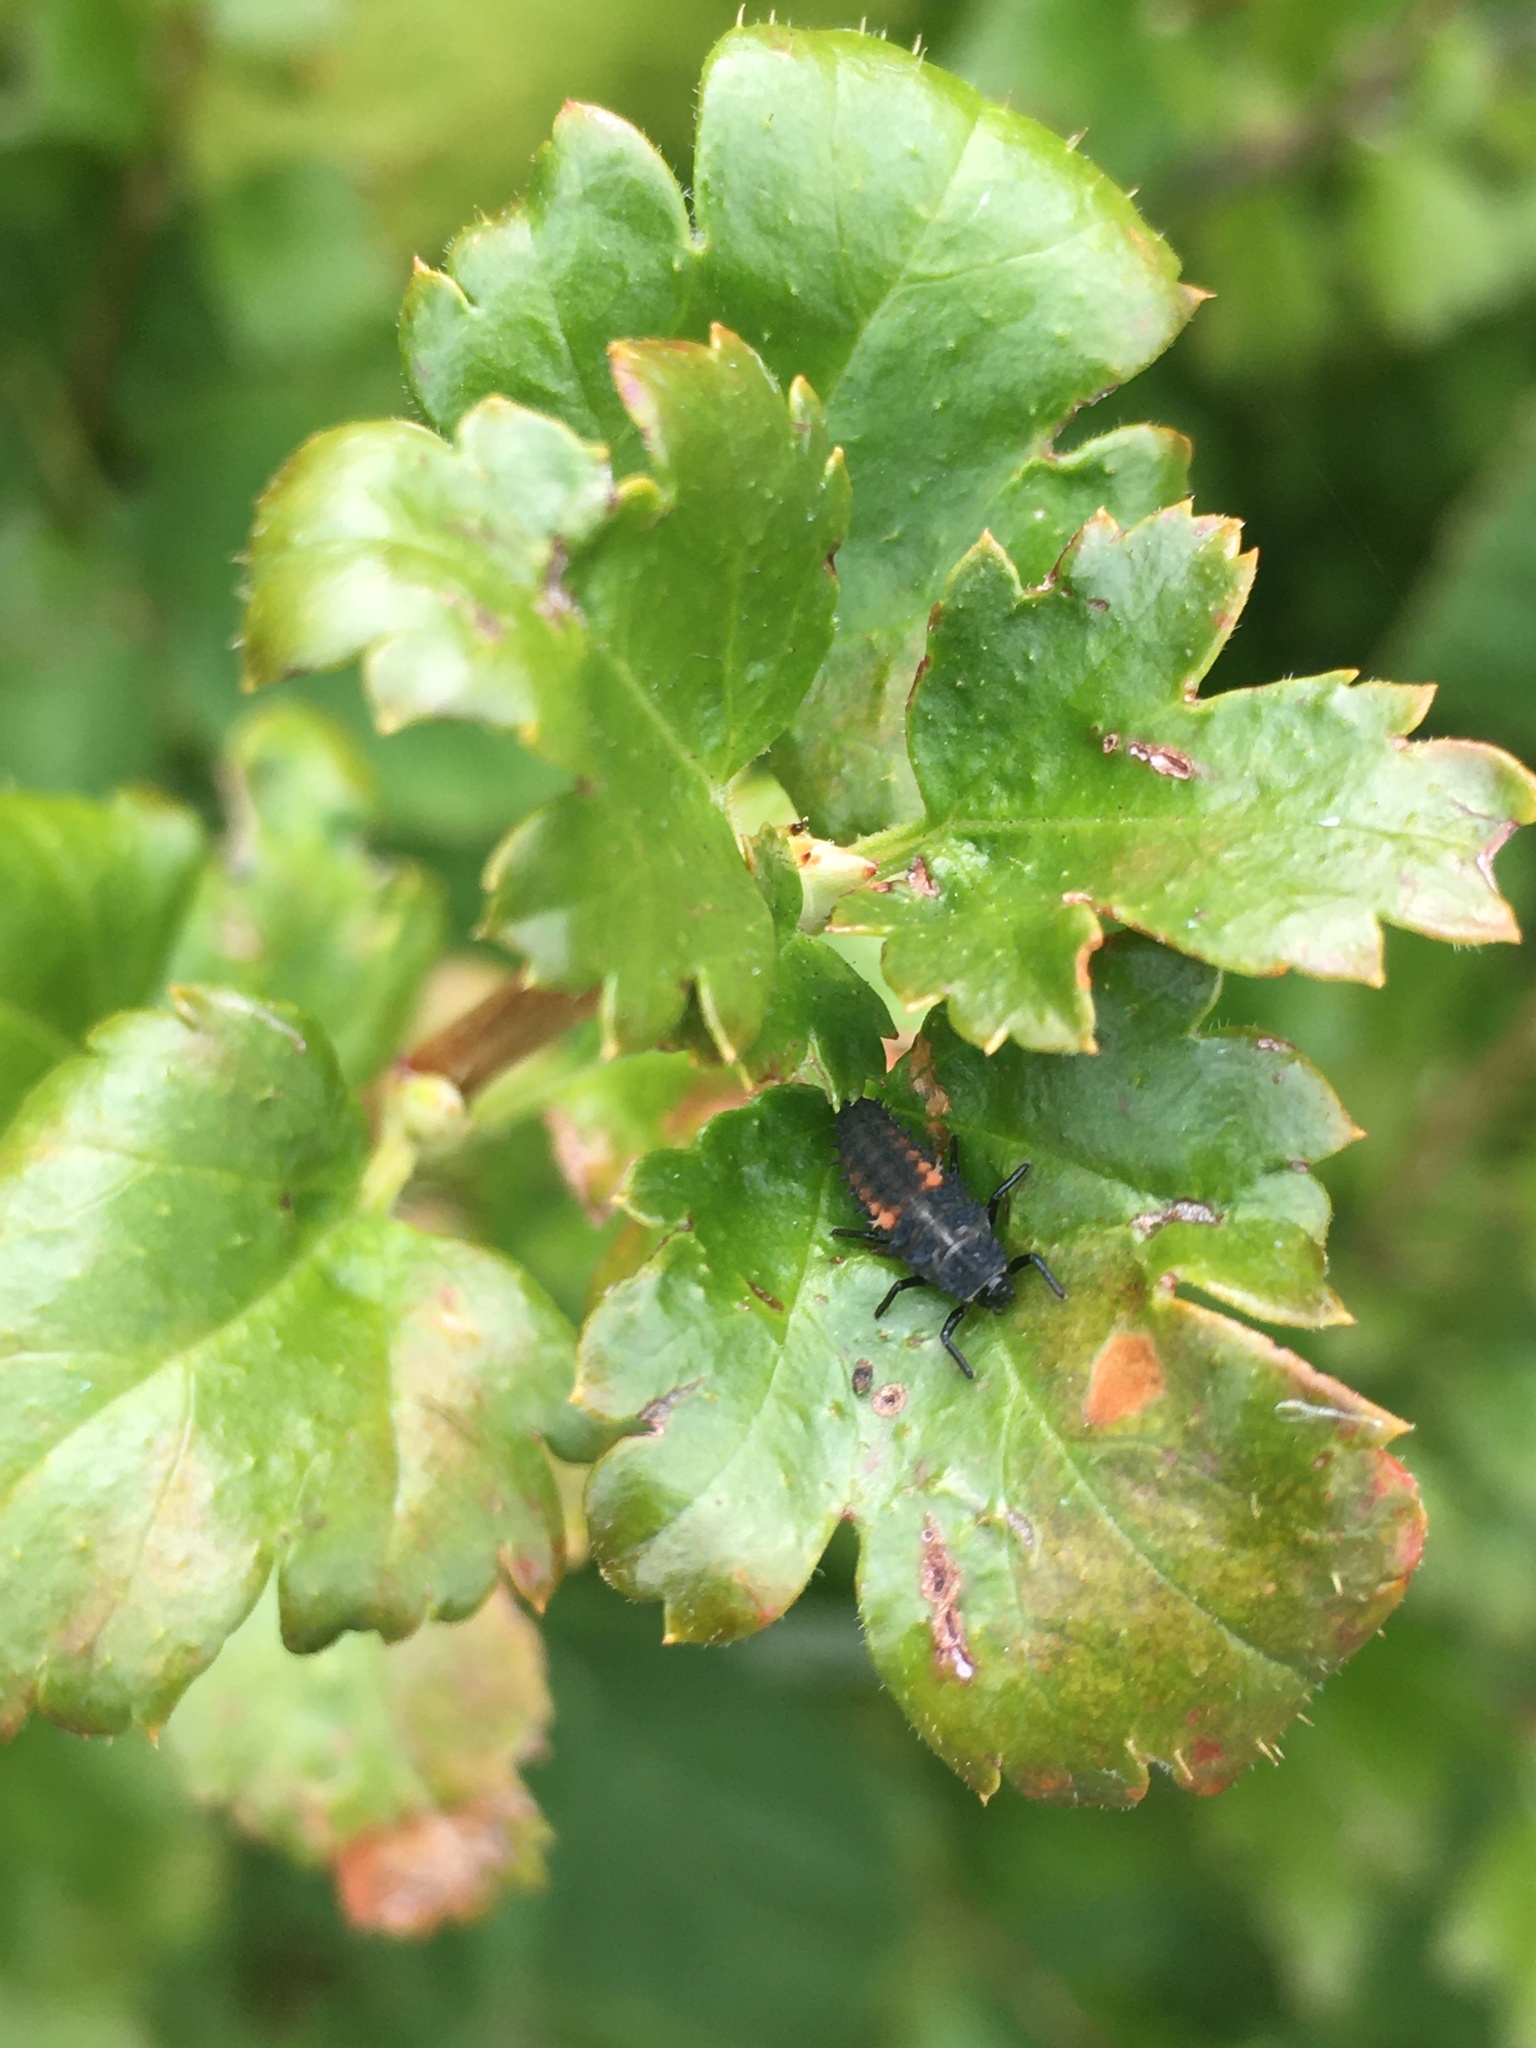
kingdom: Animalia
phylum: Arthropoda
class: Insecta
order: Coleoptera
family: Coccinellidae
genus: Harmonia
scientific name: Harmonia axyridis
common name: Harlequin ladybird
